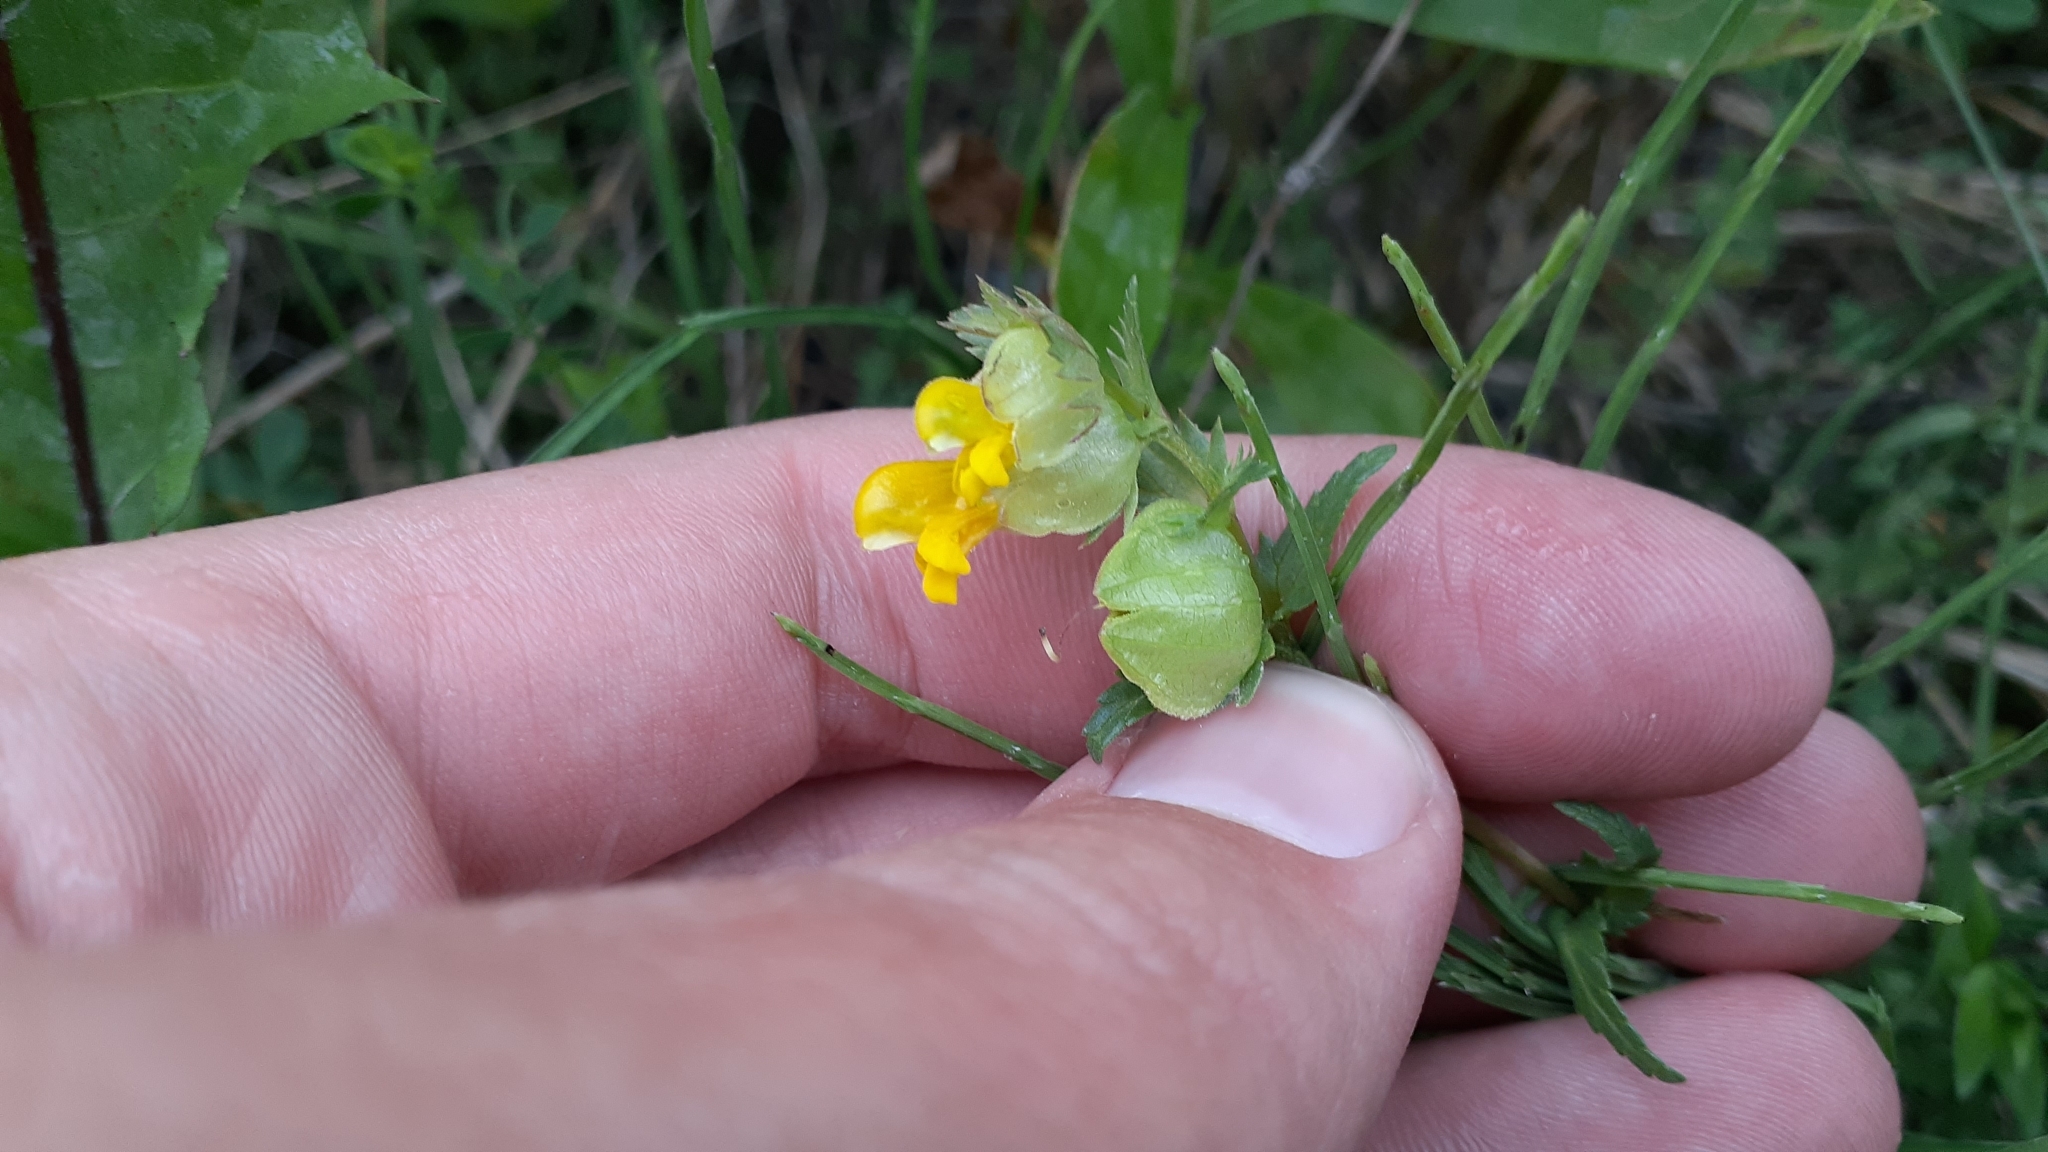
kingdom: Plantae
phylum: Tracheophyta
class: Magnoliopsida
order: Lamiales
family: Orobanchaceae
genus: Rhinanthus
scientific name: Rhinanthus minor
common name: Yellow-rattle
